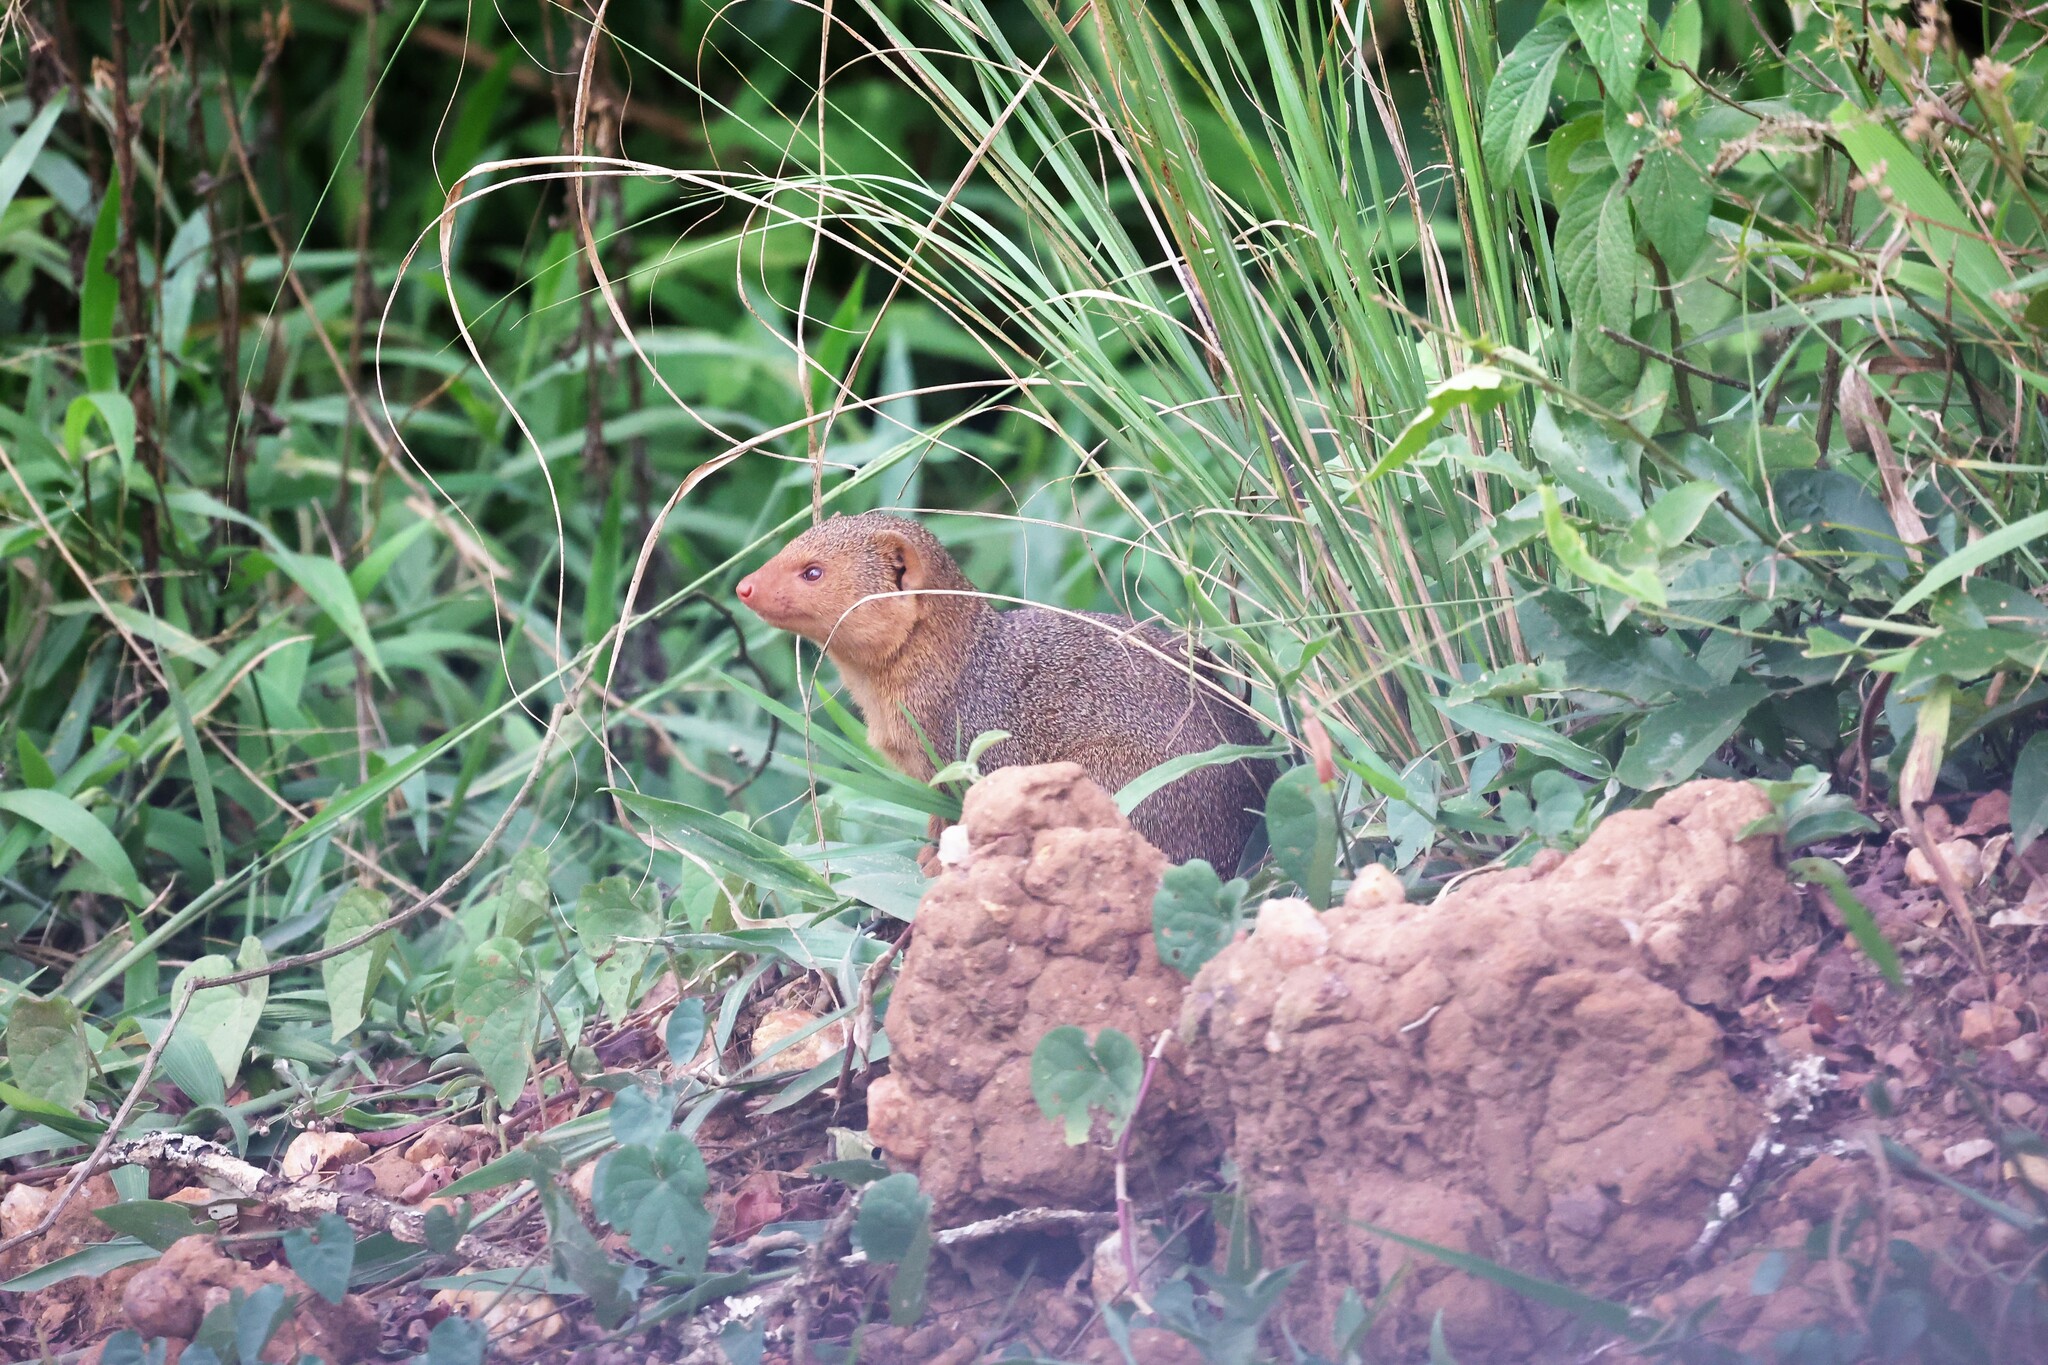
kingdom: Animalia
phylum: Chordata
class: Mammalia
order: Carnivora
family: Herpestidae
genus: Helogale
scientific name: Helogale parvula
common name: Common dwarf mongoose
